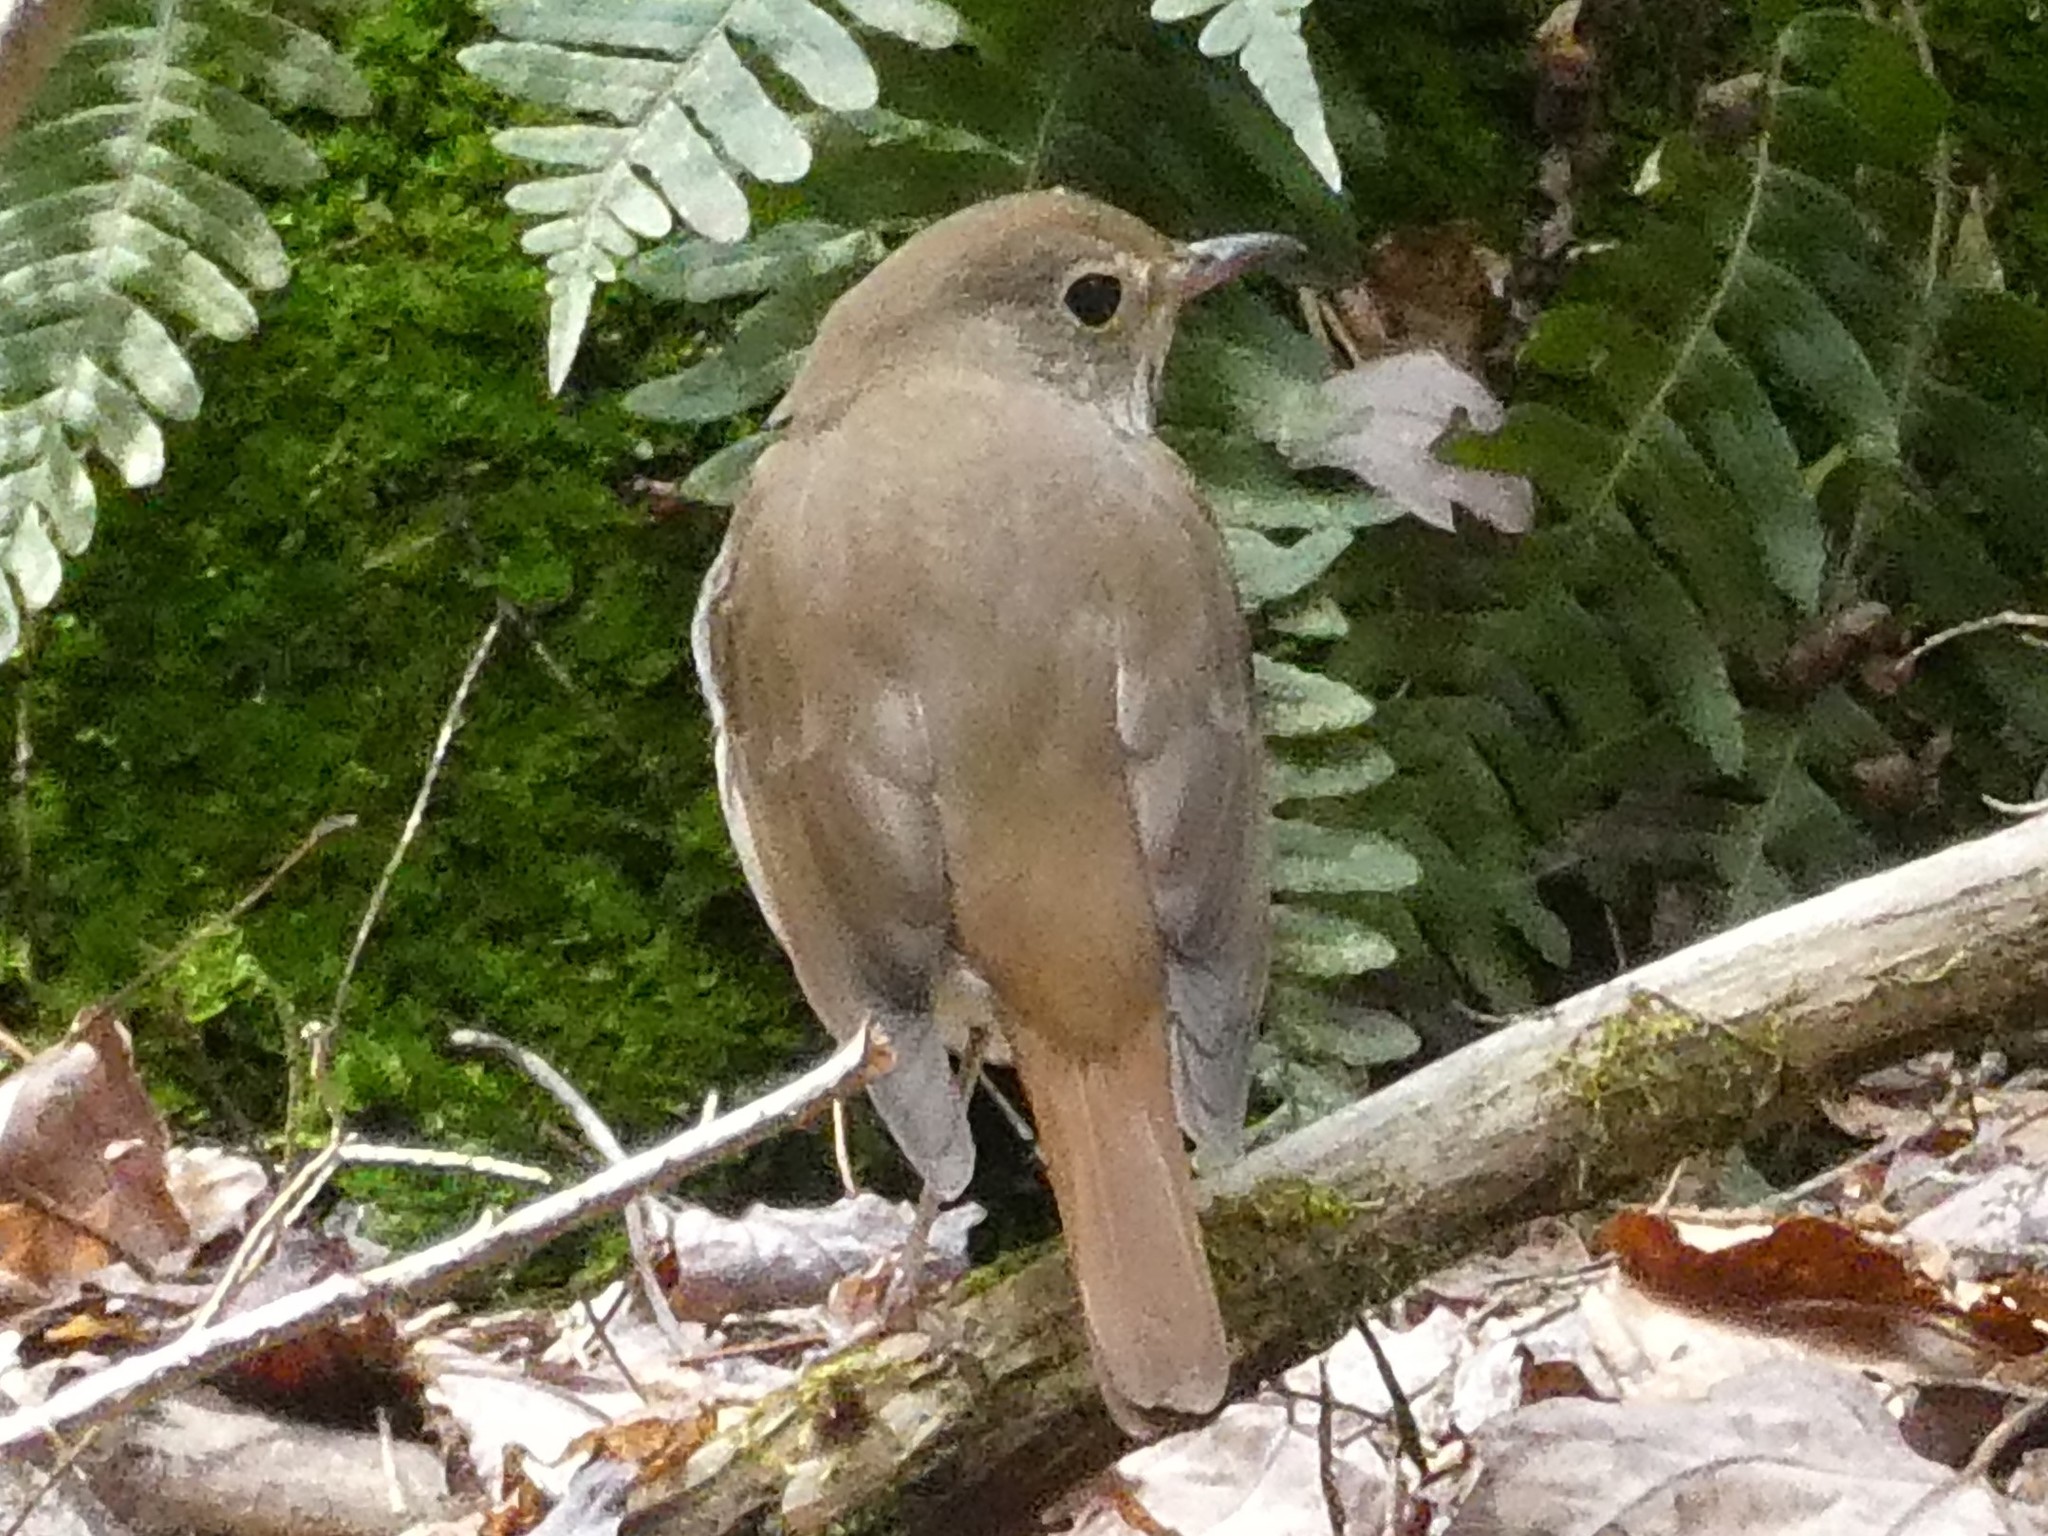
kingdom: Animalia
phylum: Chordata
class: Aves
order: Passeriformes
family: Turdidae
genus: Catharus
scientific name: Catharus guttatus
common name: Hermit thrush
